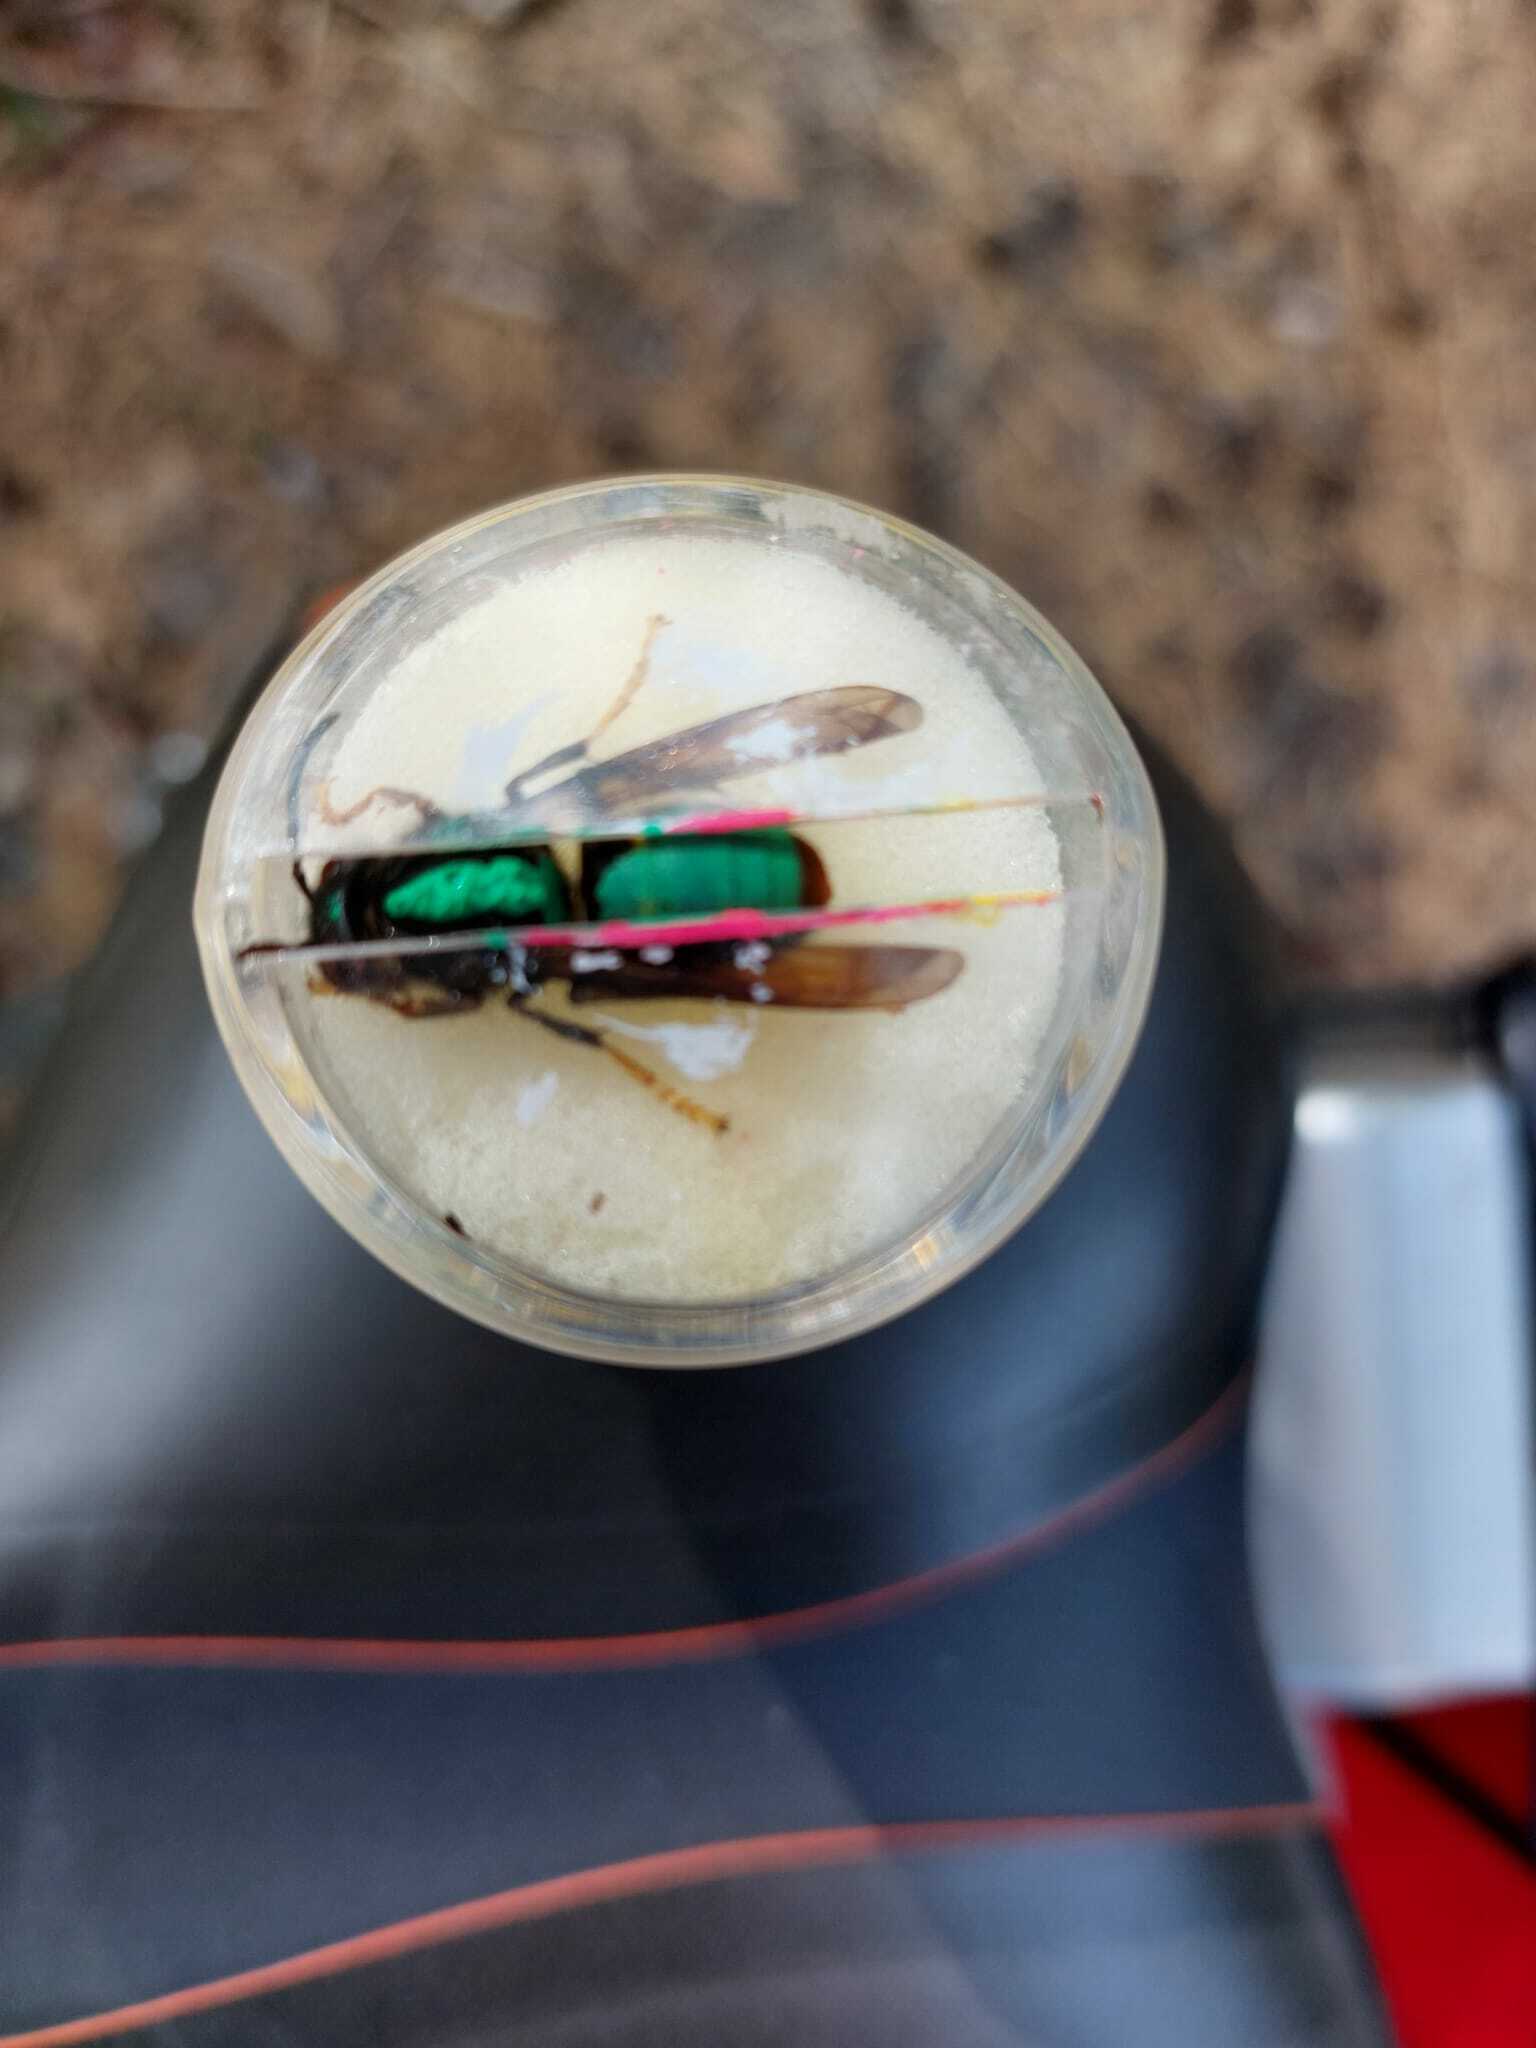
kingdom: Animalia
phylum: Arthropoda
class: Insecta
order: Hymenoptera
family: Vespidae
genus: Vespa
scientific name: Vespa velutina
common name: Asian hornet
